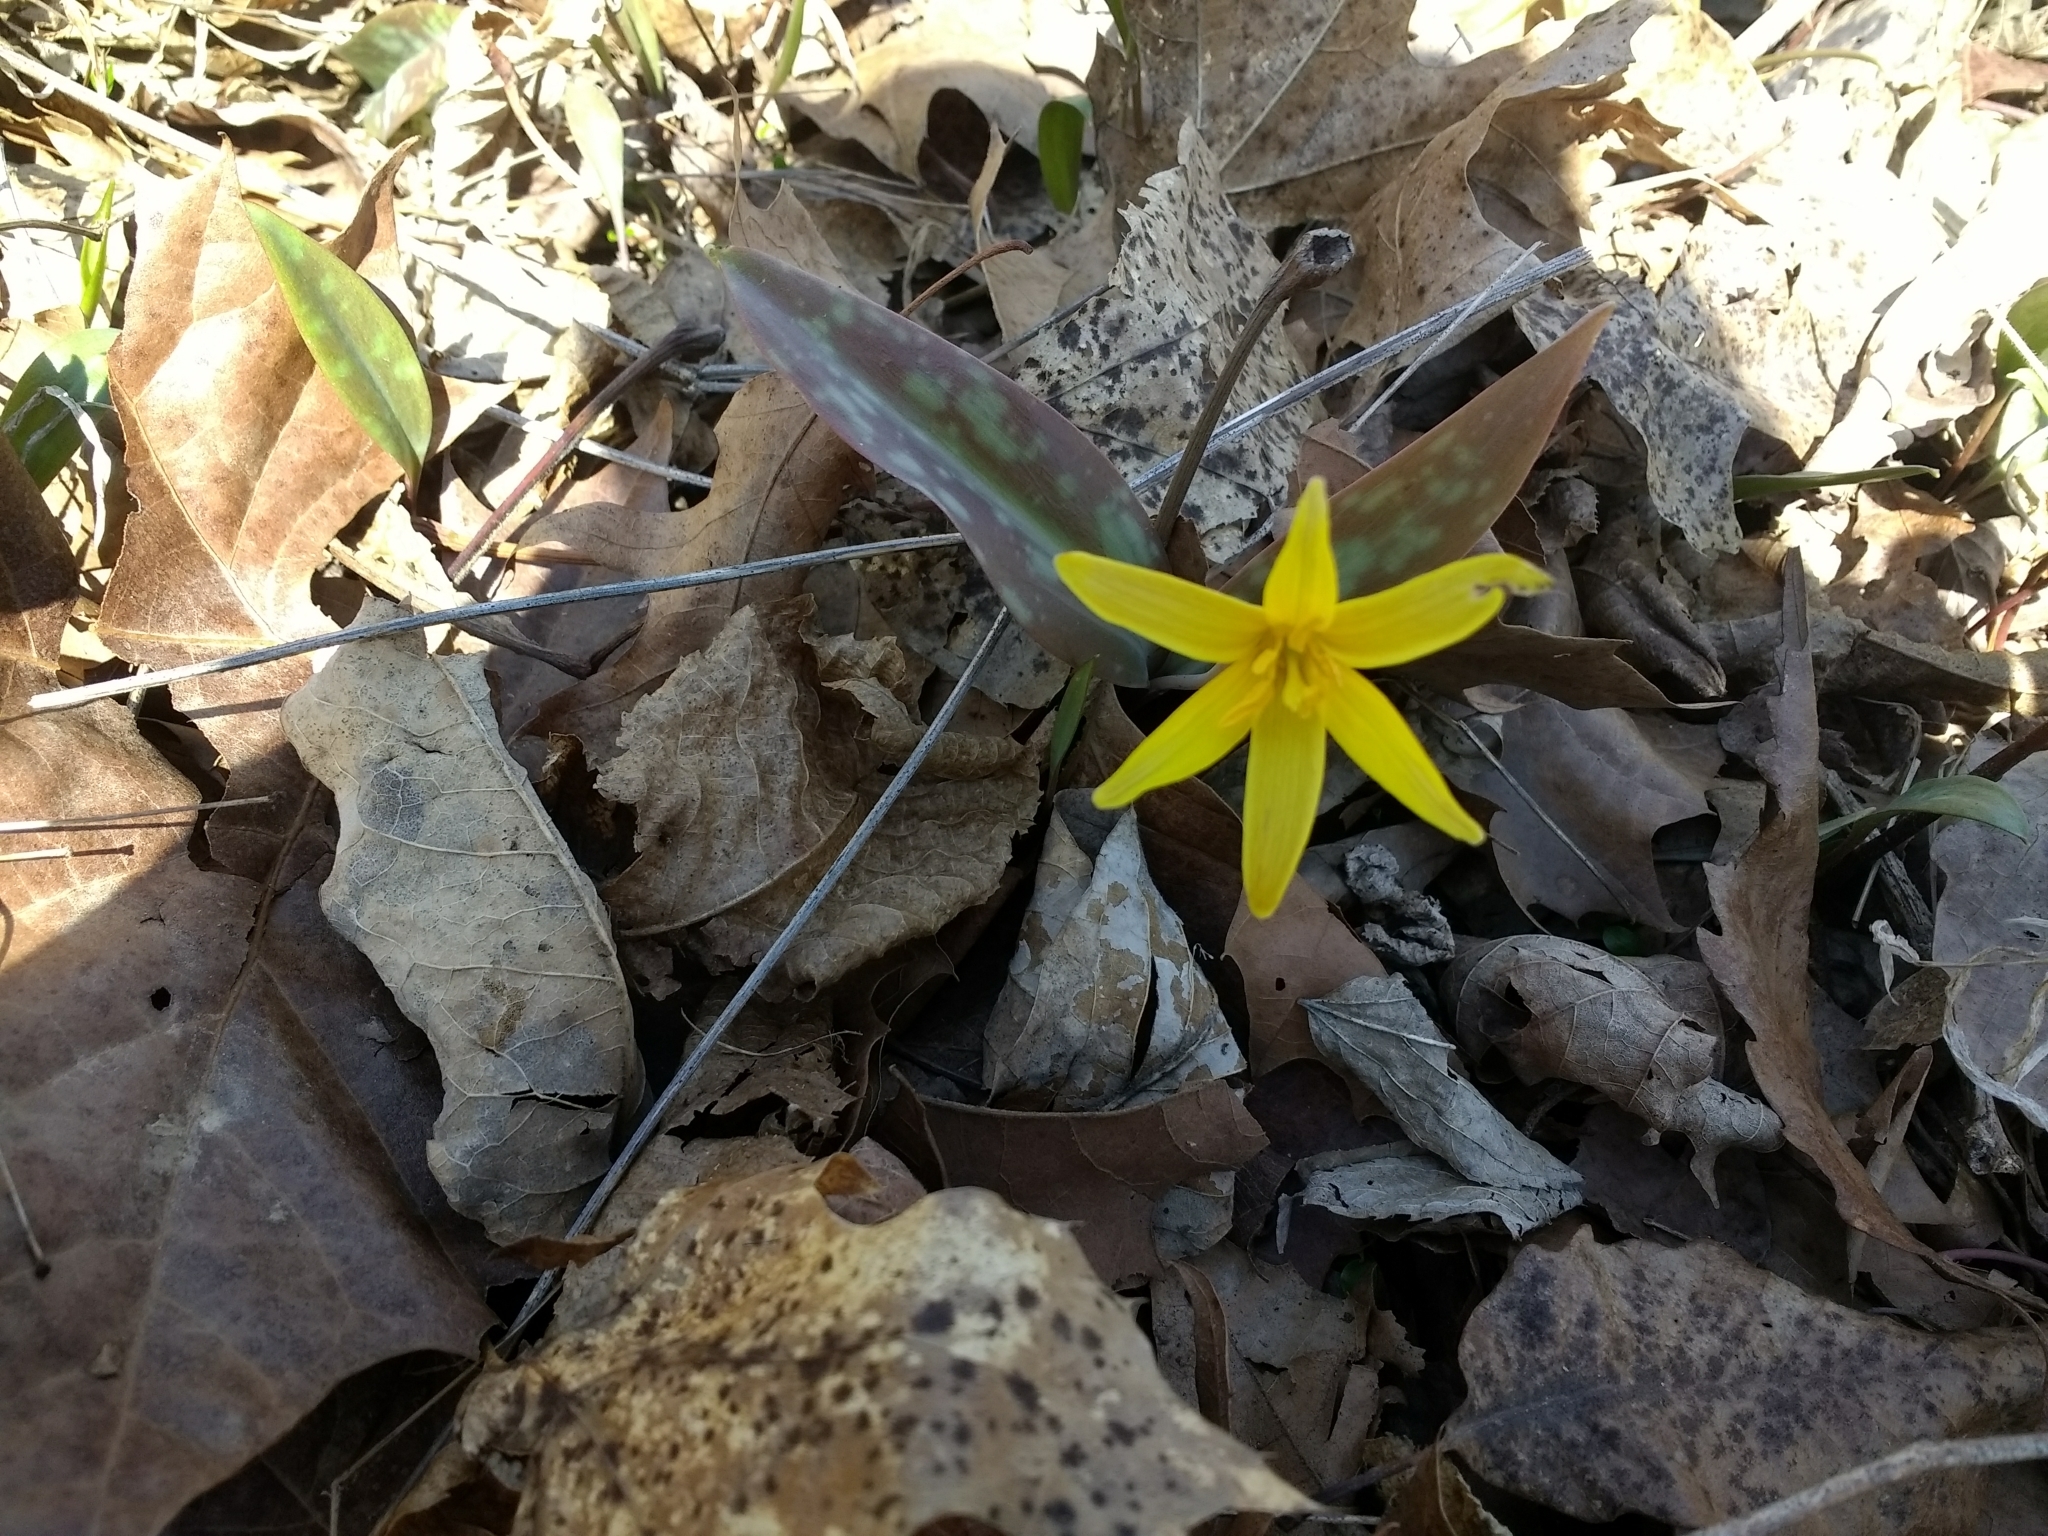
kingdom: Plantae
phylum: Tracheophyta
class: Liliopsida
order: Liliales
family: Liliaceae
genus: Erythronium
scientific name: Erythronium rostratum
